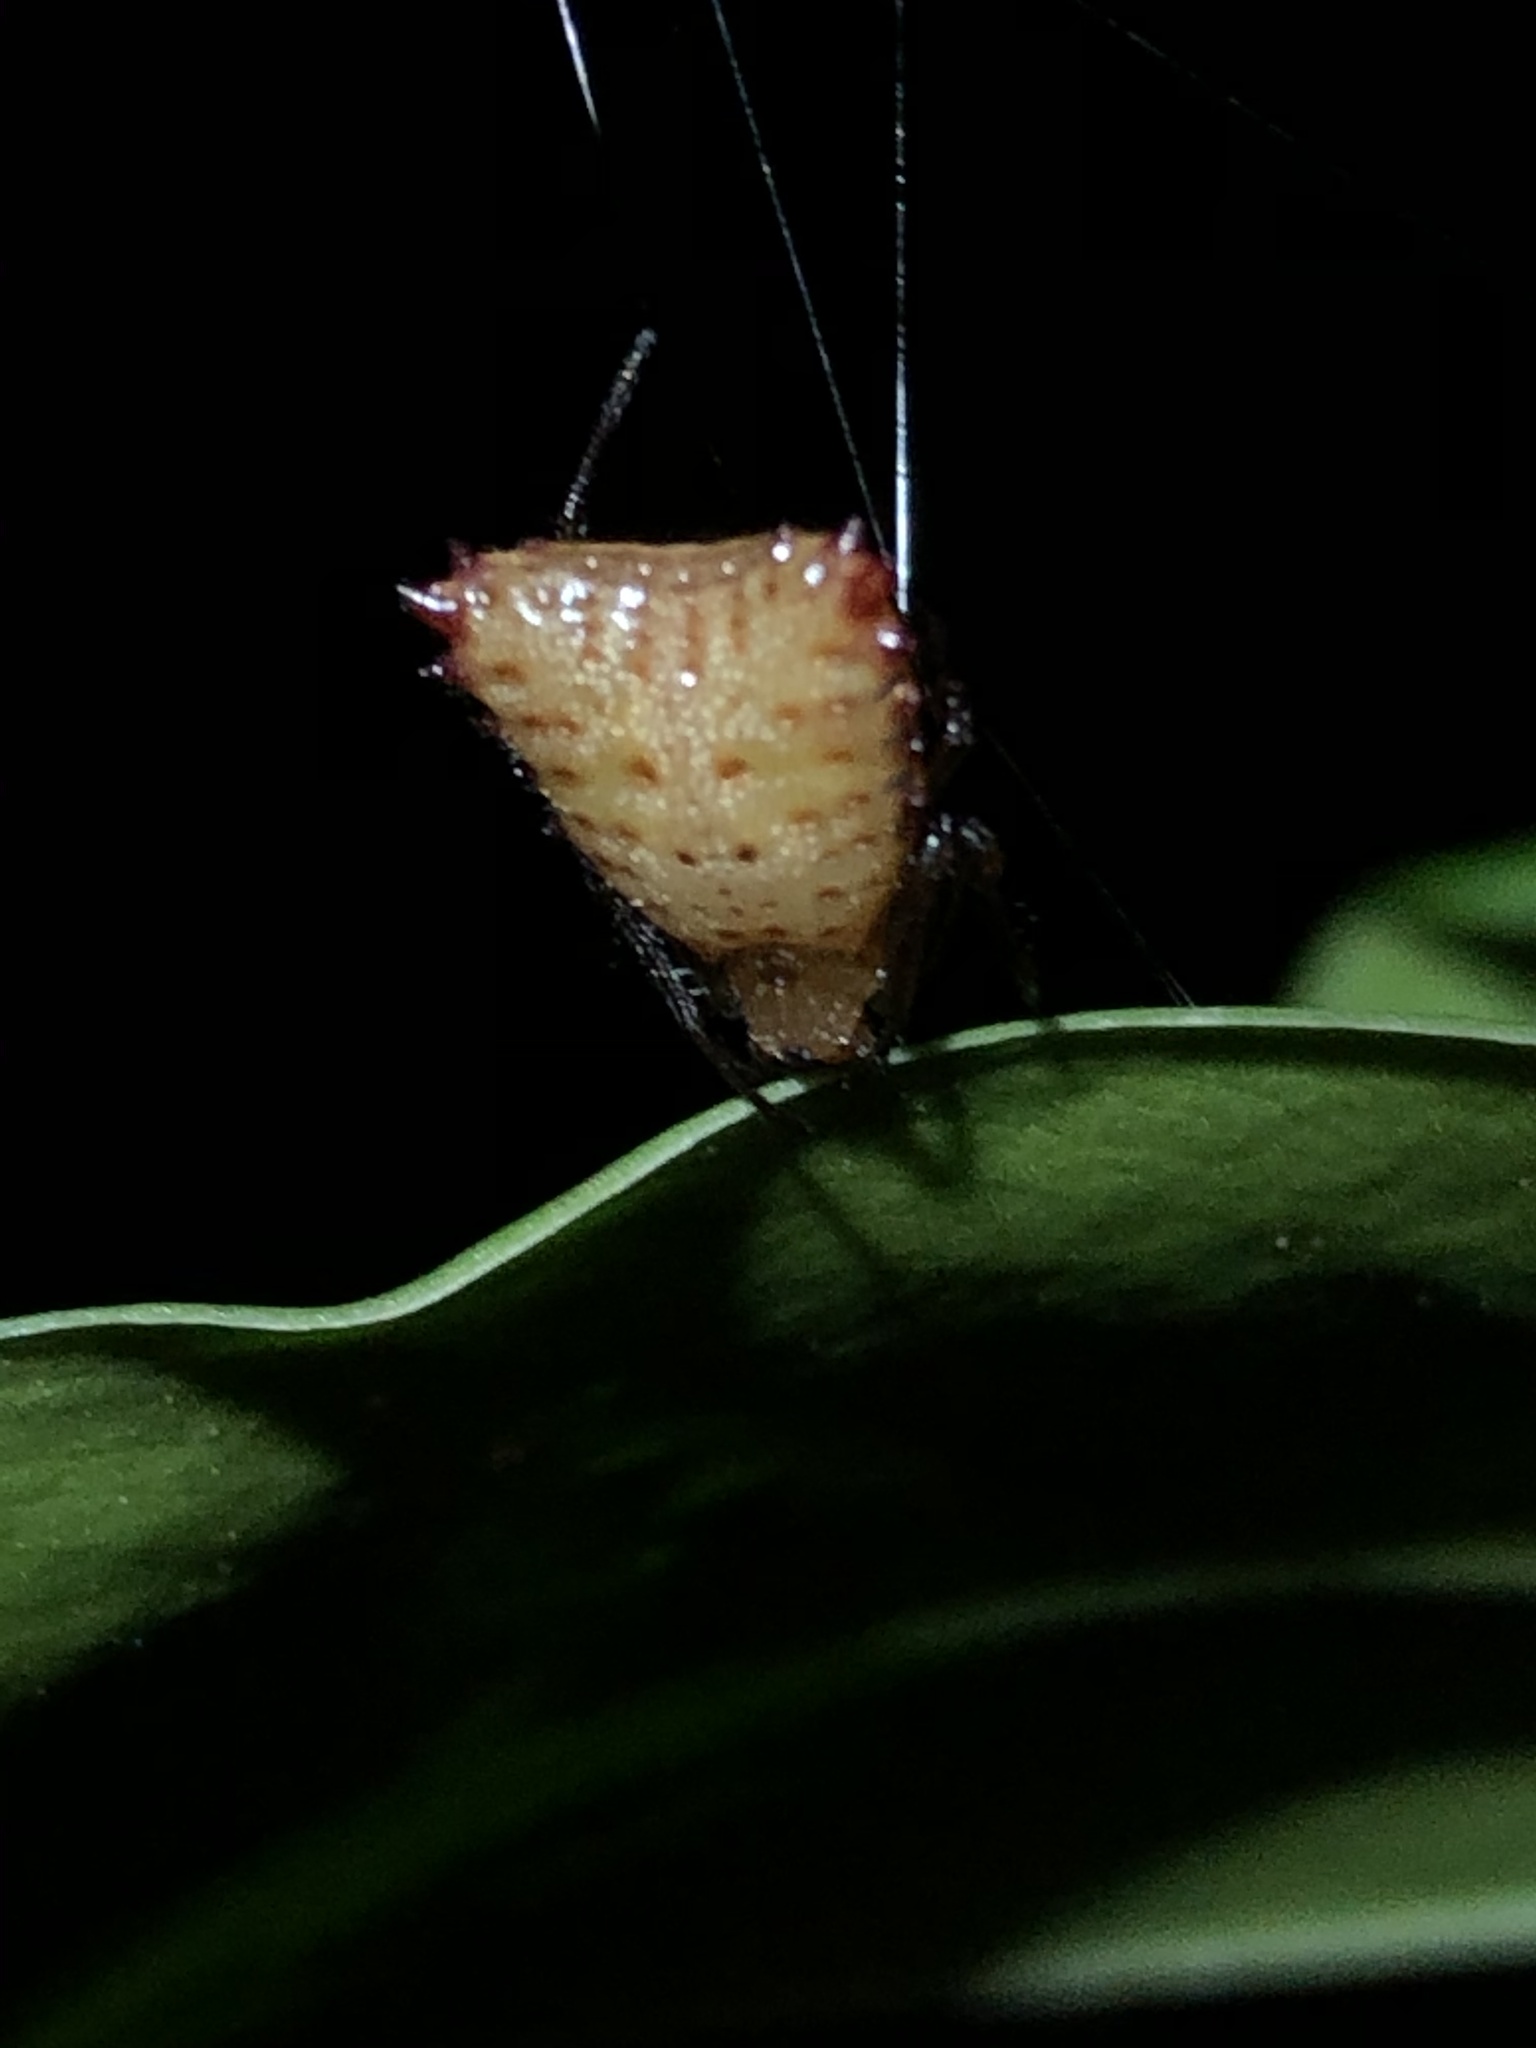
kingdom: Animalia
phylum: Arthropoda
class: Arachnida
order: Araneae
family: Araneidae
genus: Micrathena
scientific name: Micrathena excavata
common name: Orb weavers
